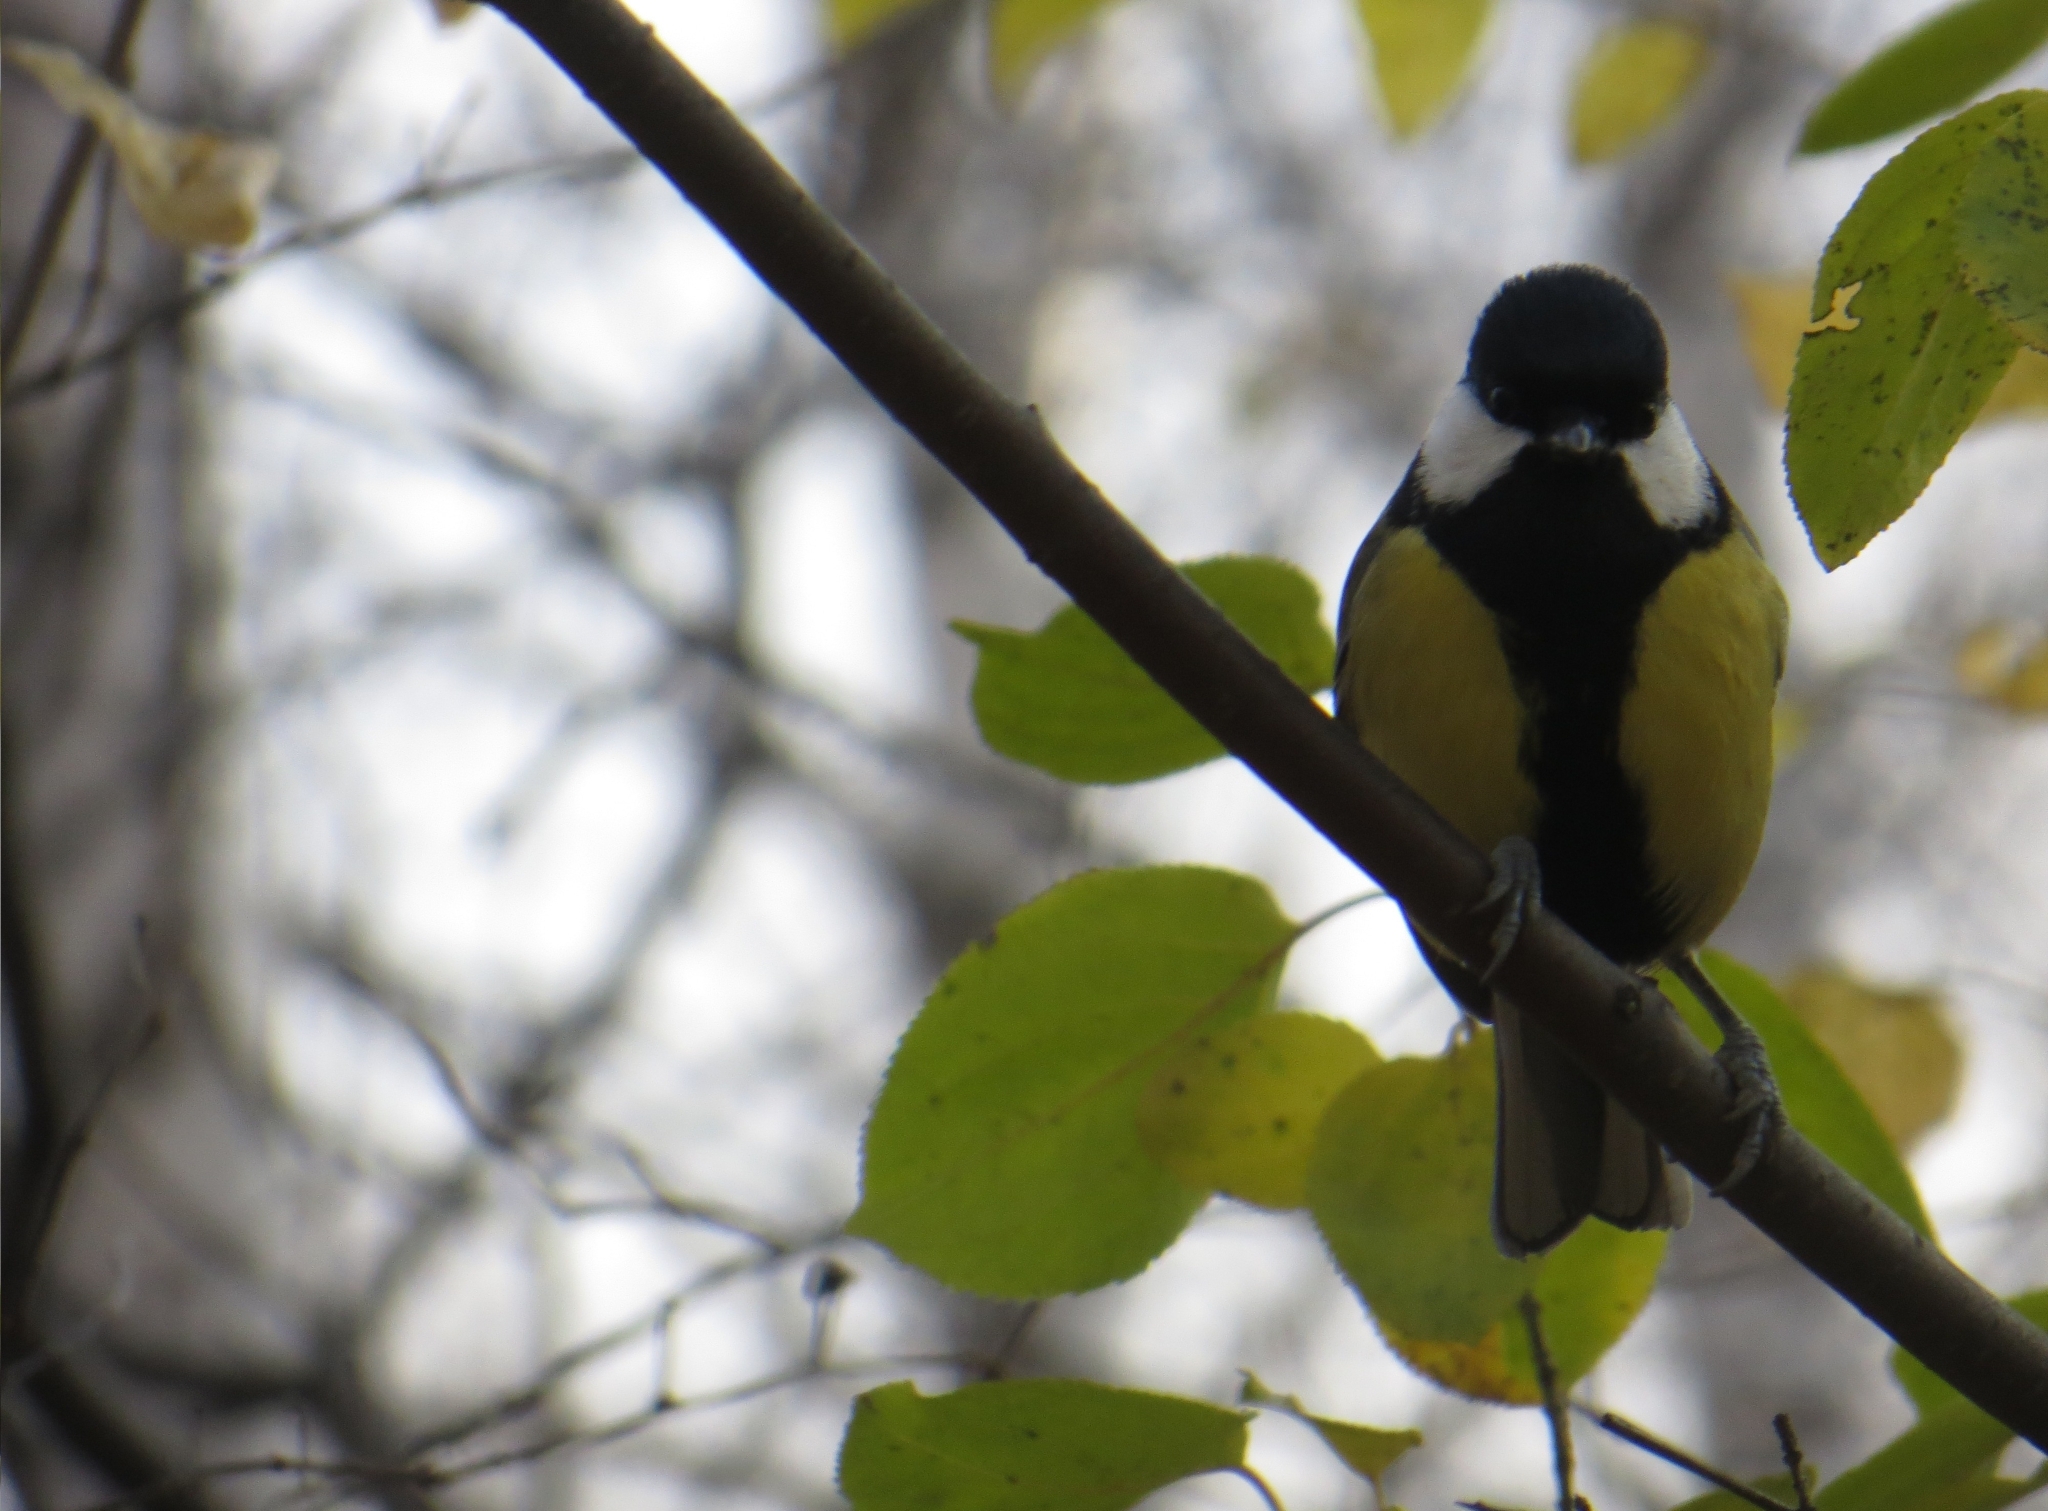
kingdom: Animalia
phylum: Chordata
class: Aves
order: Passeriformes
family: Paridae
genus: Parus
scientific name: Parus major
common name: Great tit
